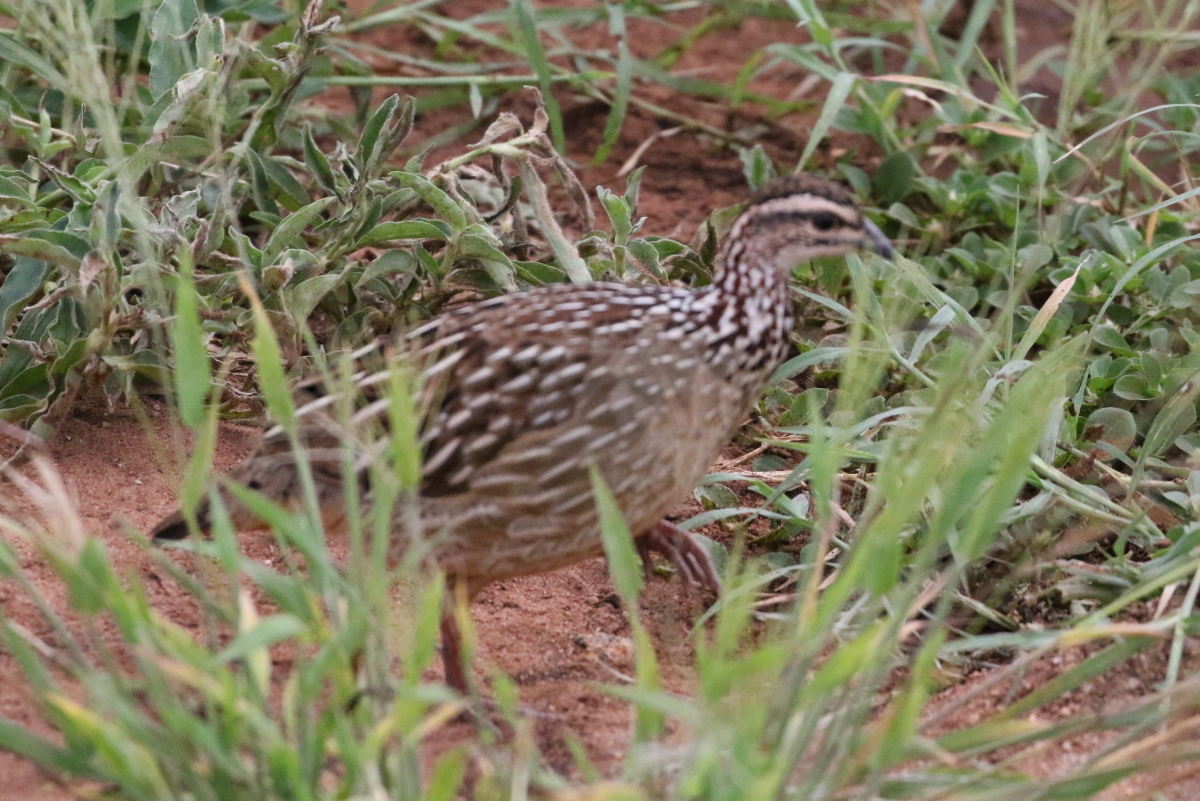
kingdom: Animalia
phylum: Chordata
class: Aves
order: Galliformes
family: Phasianidae
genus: Ortygornis
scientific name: Ortygornis sephaena
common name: Crested francolin
